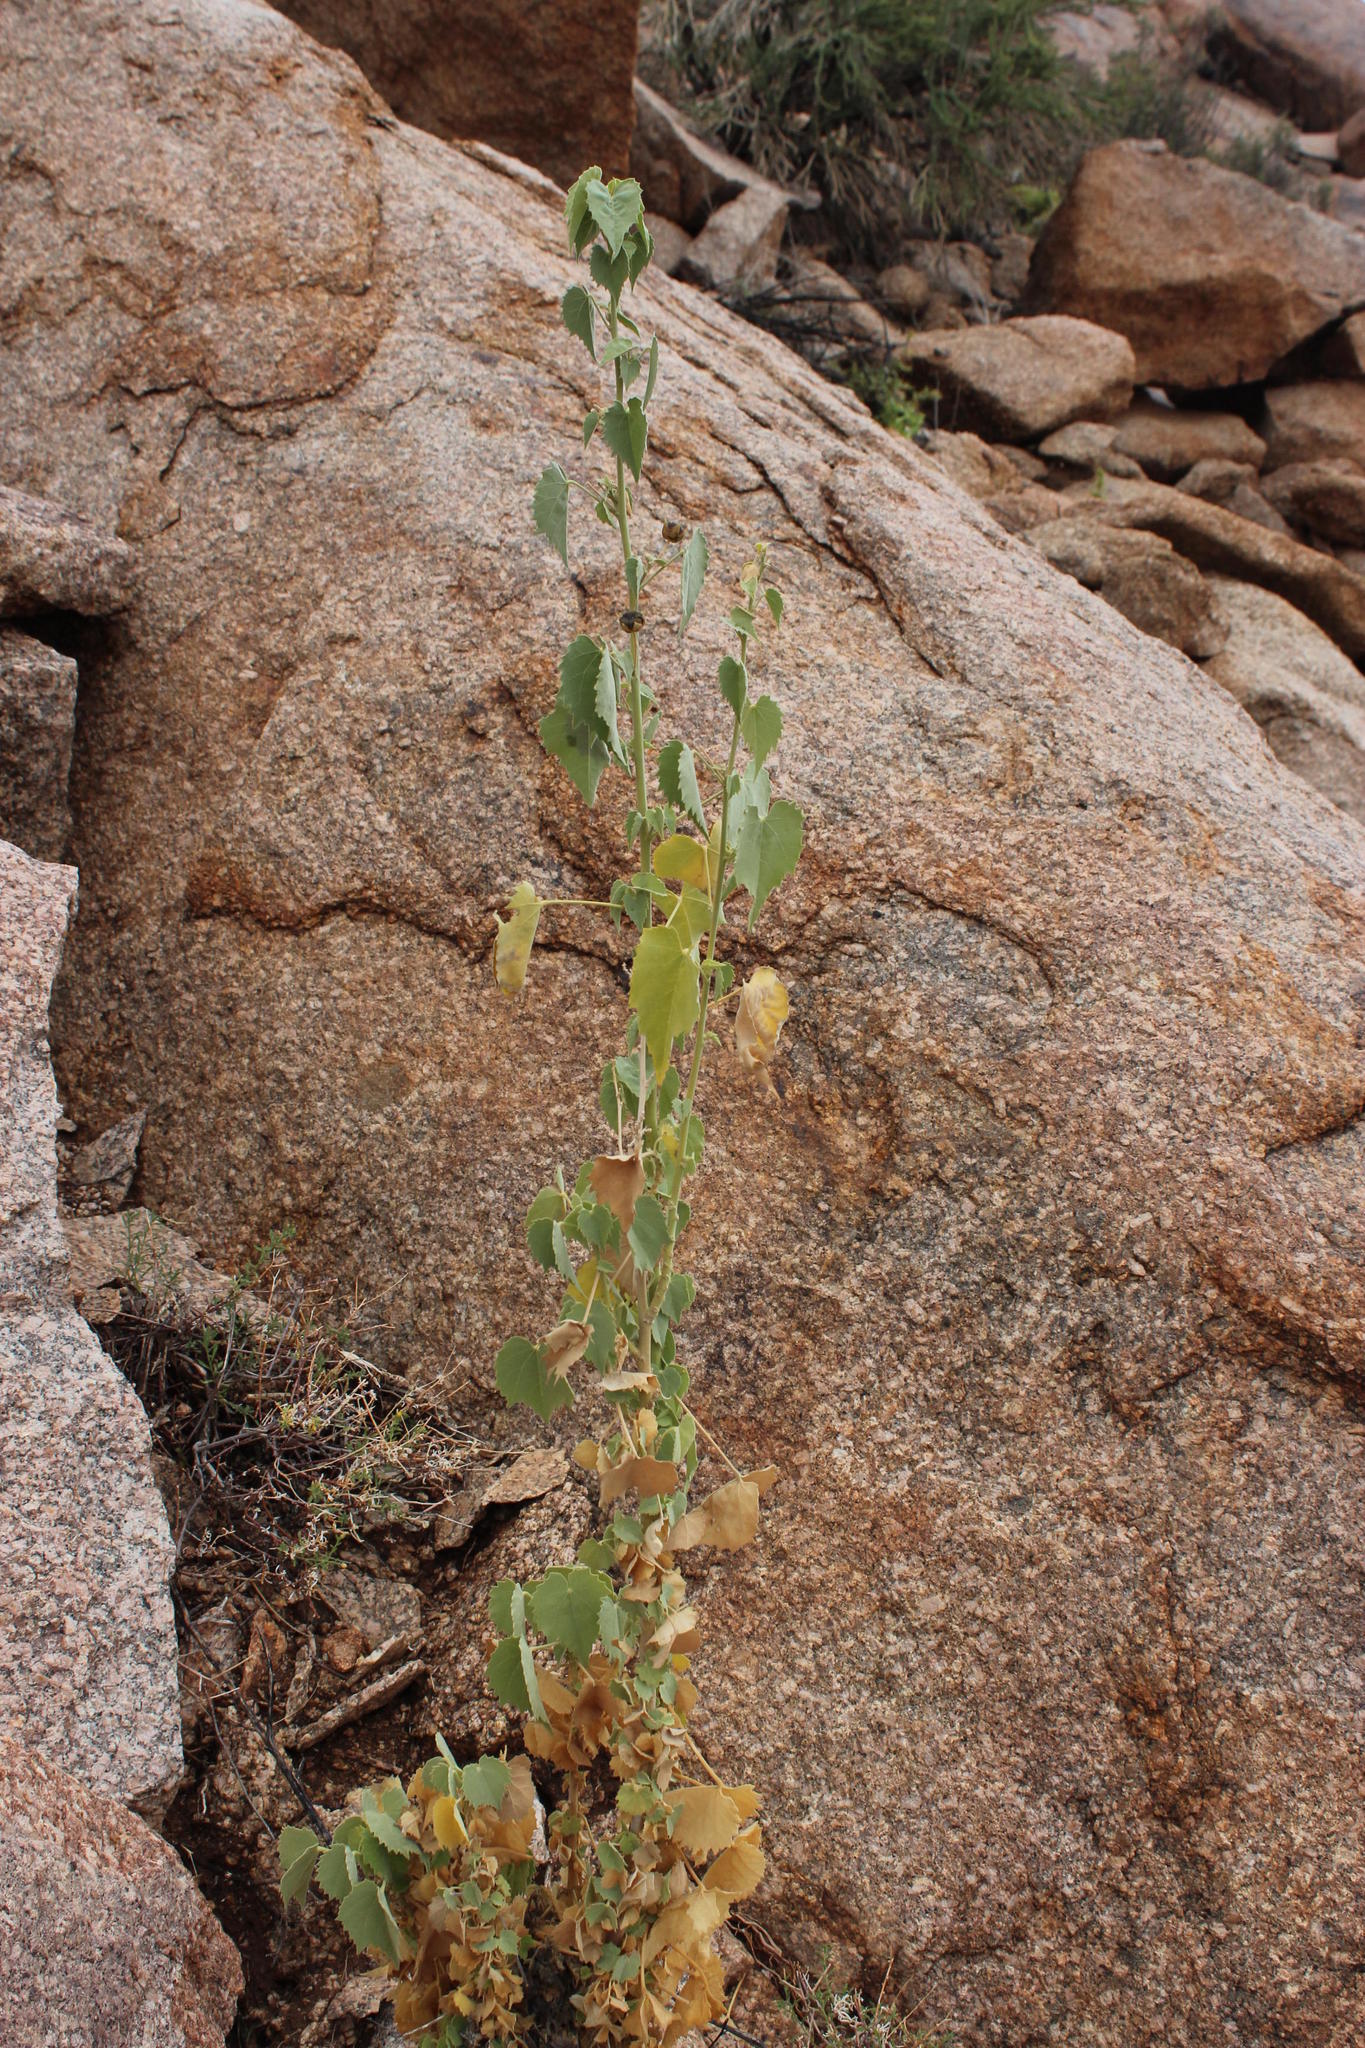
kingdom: Plantae
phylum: Tracheophyta
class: Magnoliopsida
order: Malvales
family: Malvaceae
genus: Abutilon
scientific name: Abutilon pycnodon
